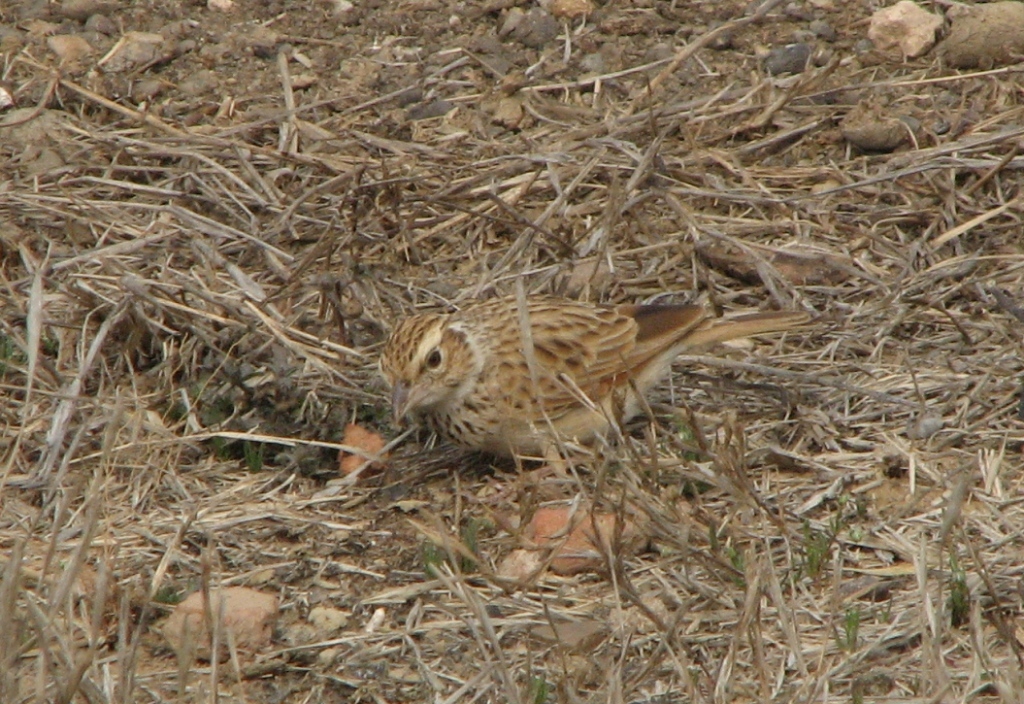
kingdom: Animalia
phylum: Chordata
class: Aves
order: Passeriformes
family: Alaudidae
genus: Mirafra
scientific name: Mirafra erythroptera
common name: Indian bush lark
